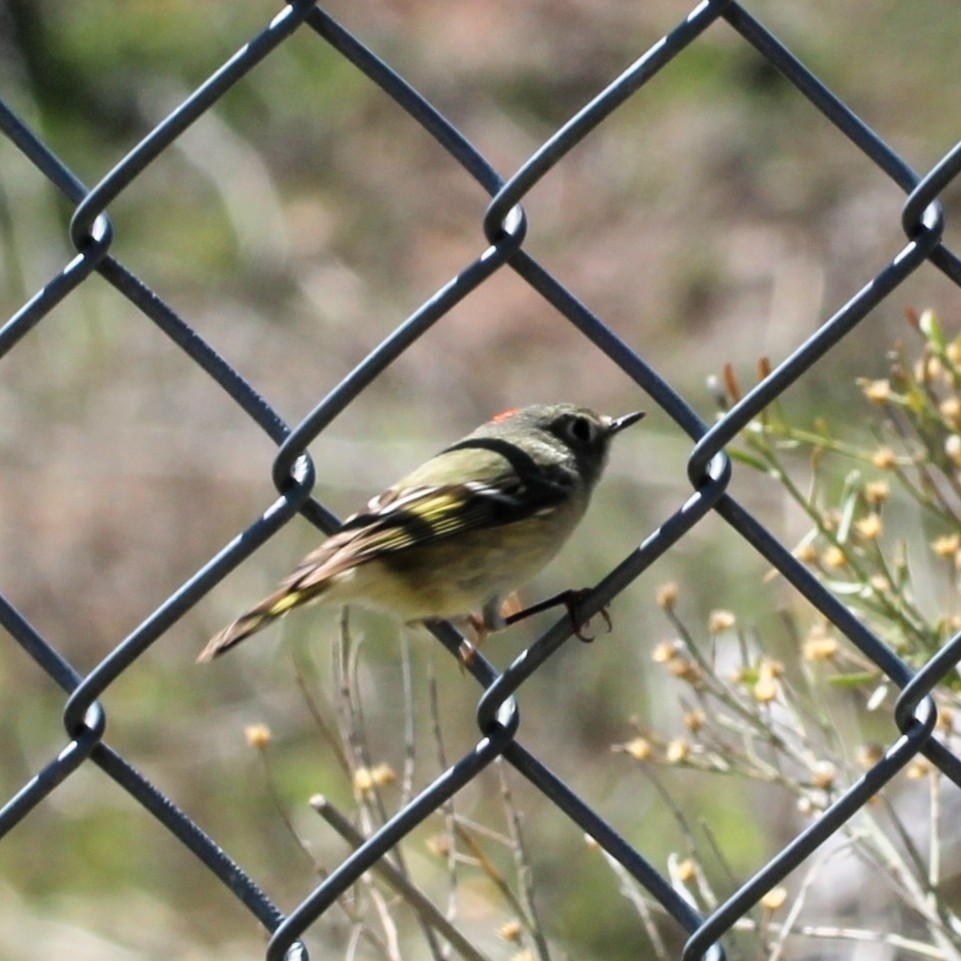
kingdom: Animalia
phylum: Chordata
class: Aves
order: Passeriformes
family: Regulidae
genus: Regulus
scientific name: Regulus calendula
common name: Ruby-crowned kinglet
